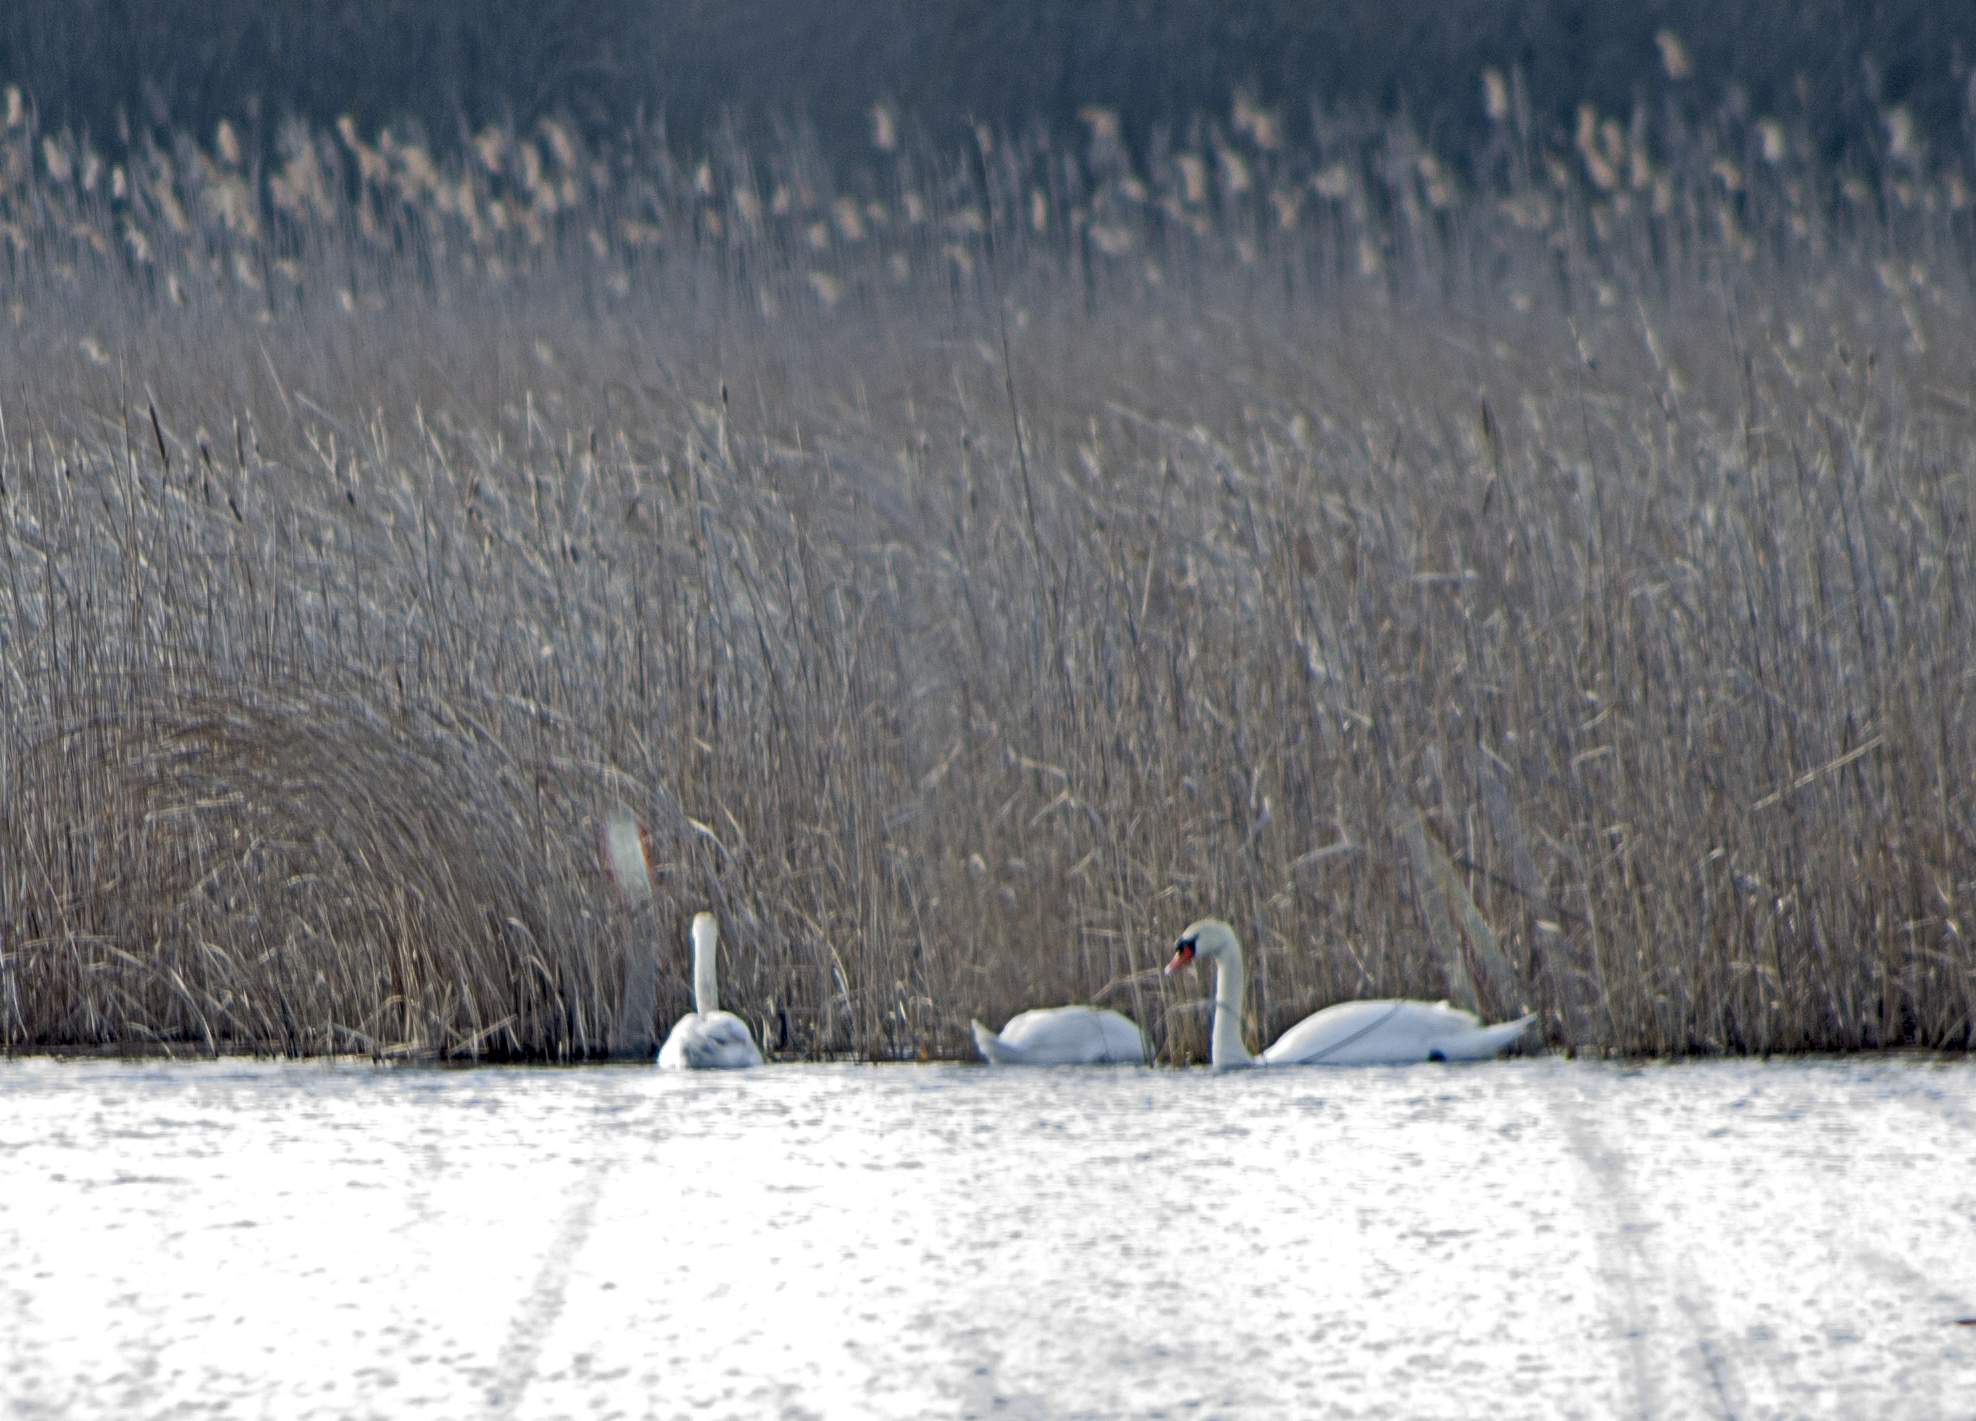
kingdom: Animalia
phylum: Chordata
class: Aves
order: Anseriformes
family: Anatidae
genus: Cygnus
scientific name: Cygnus olor
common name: Mute swan
